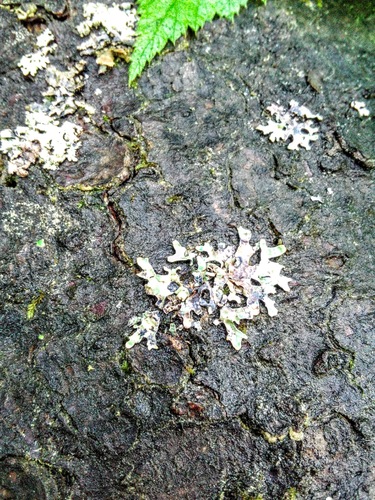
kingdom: Fungi
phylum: Ascomycota
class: Lecanoromycetes
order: Lecanorales
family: Parmeliaceae
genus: Parmelia
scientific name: Parmelia sulcata
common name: Netted shield lichen
